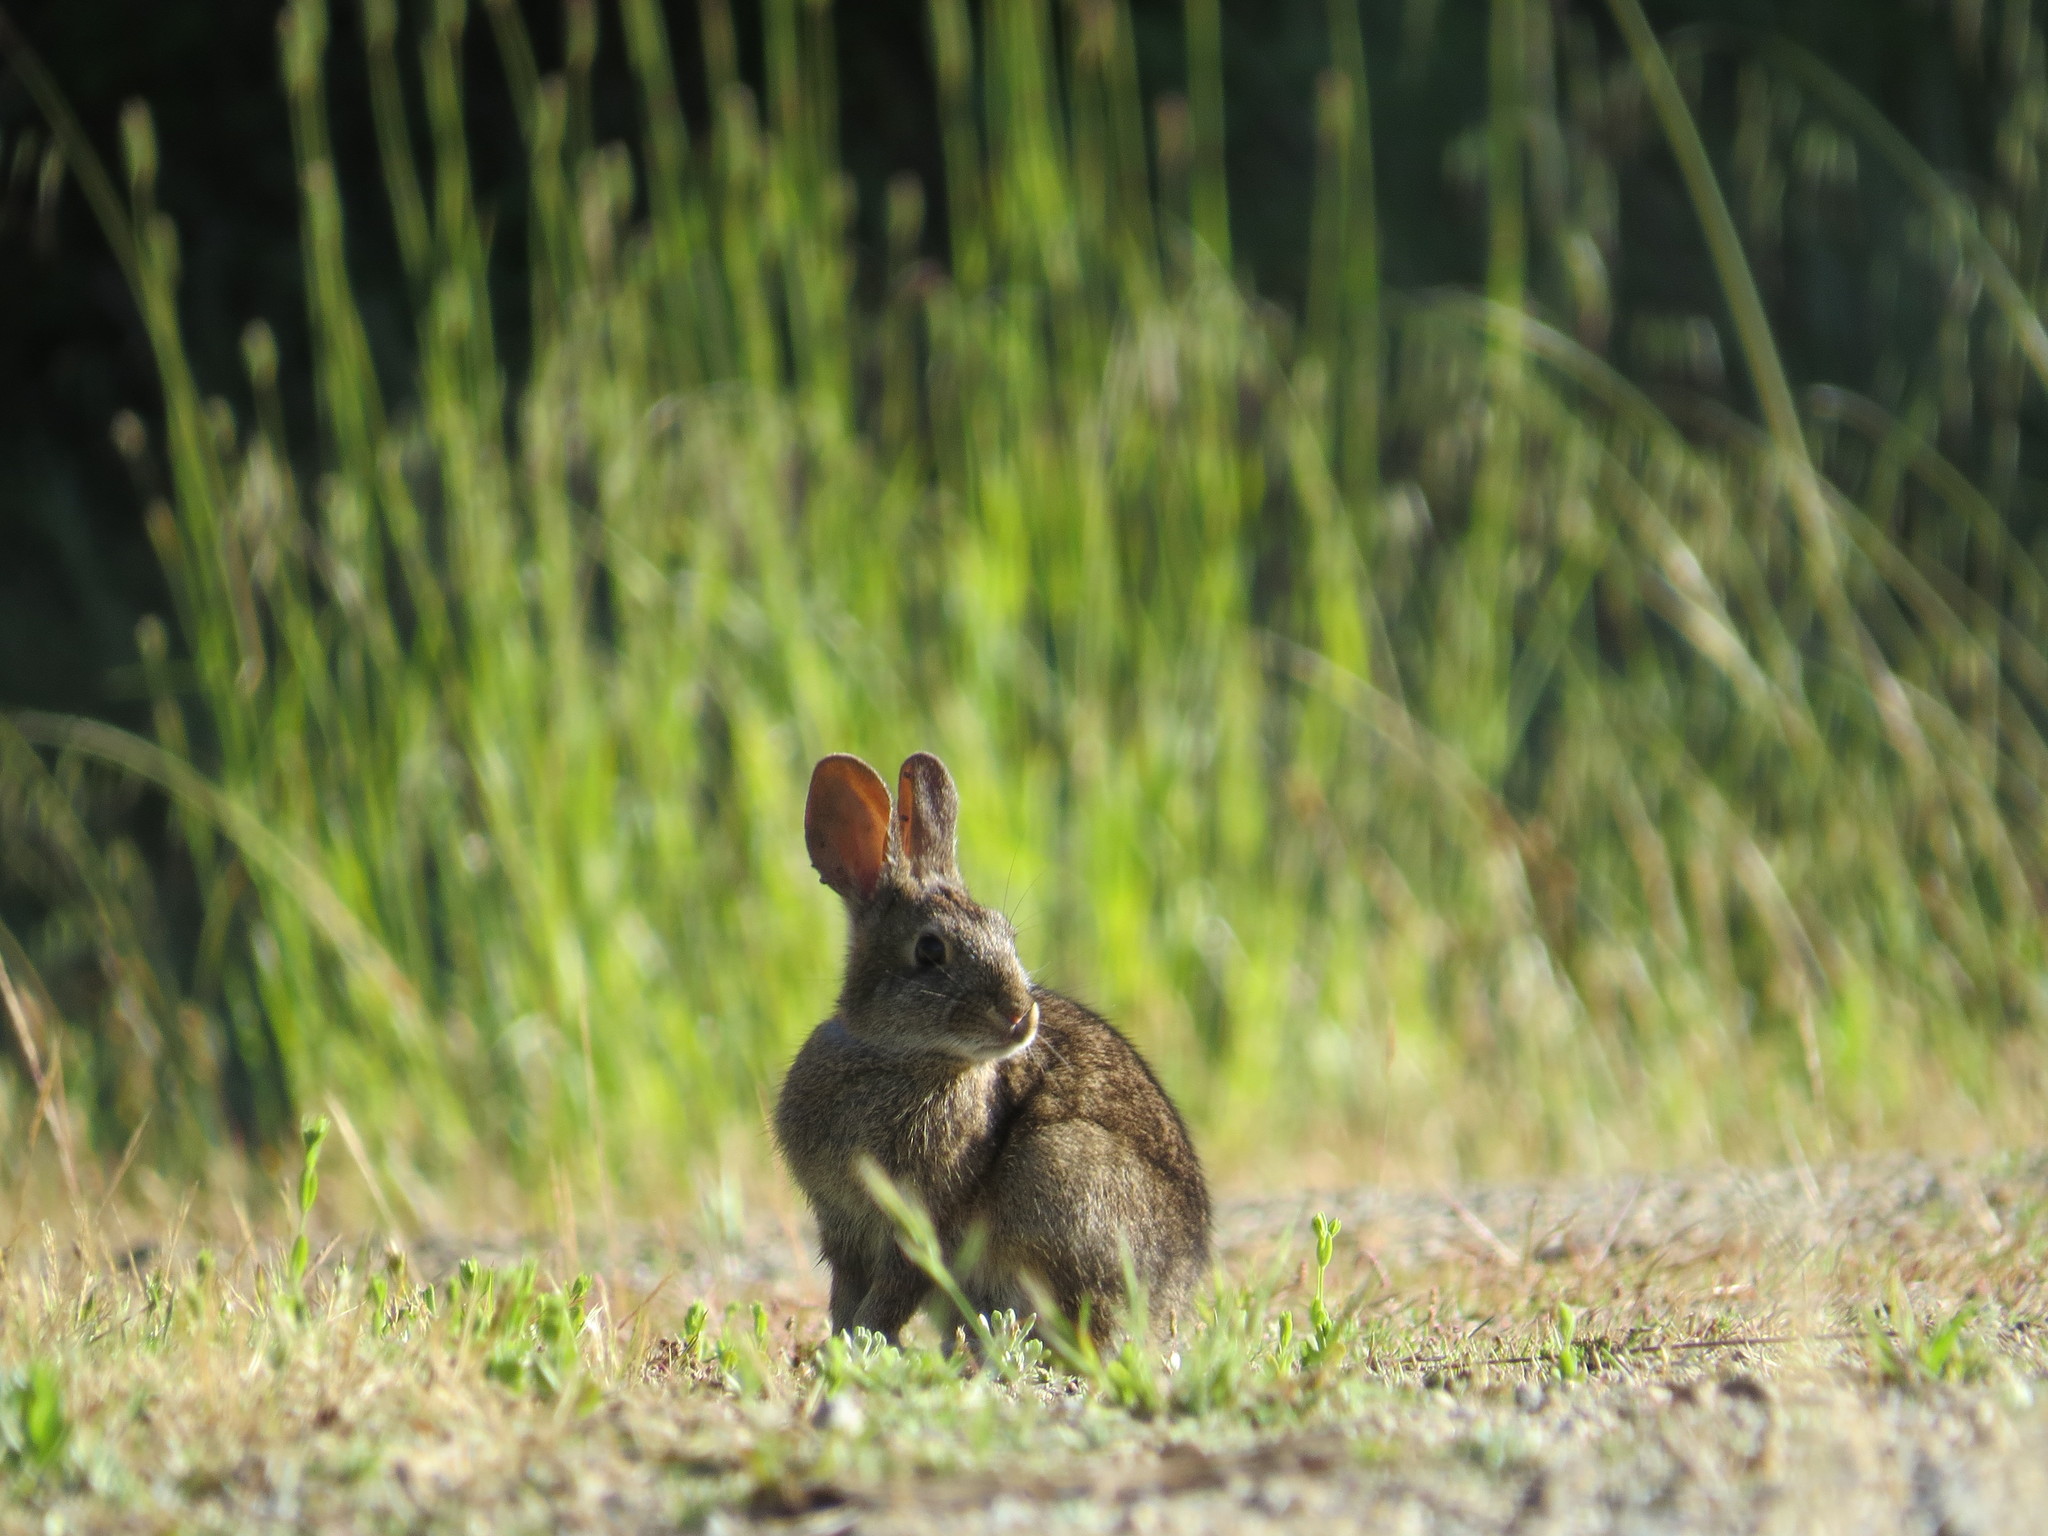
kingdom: Animalia
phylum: Chordata
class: Mammalia
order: Lagomorpha
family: Leporidae
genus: Sylvilagus
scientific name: Sylvilagus bachmani
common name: Brush rabbit
